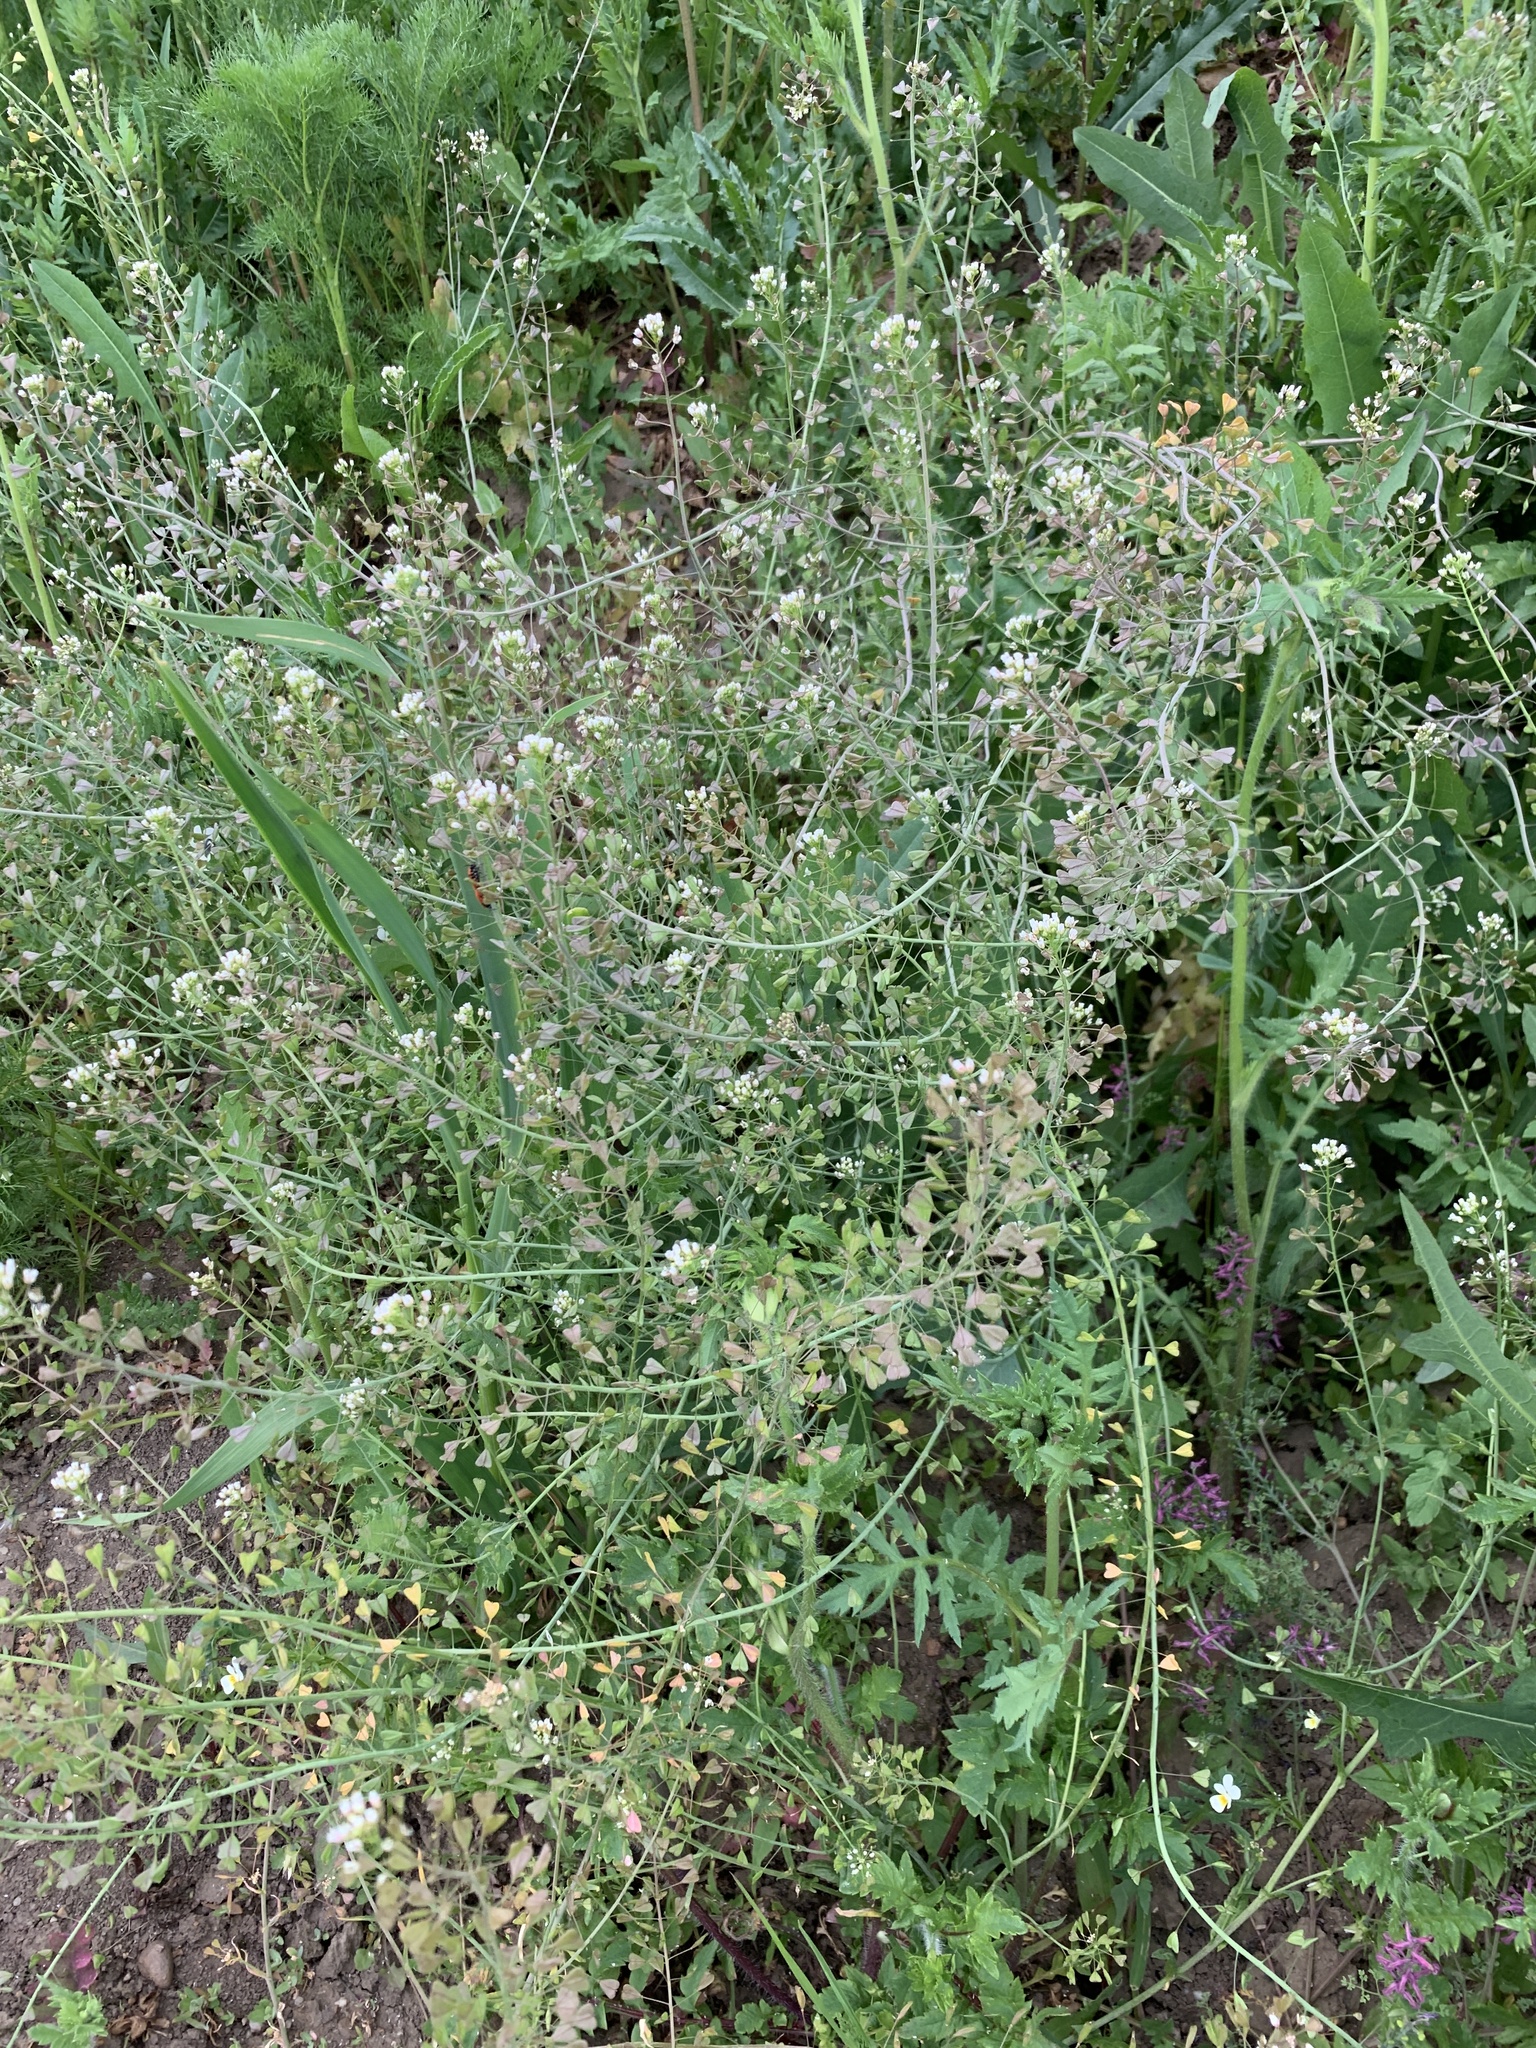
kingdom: Plantae
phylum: Tracheophyta
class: Magnoliopsida
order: Brassicales
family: Brassicaceae
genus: Capsella
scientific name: Capsella bursa-pastoris
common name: Shepherd's purse
